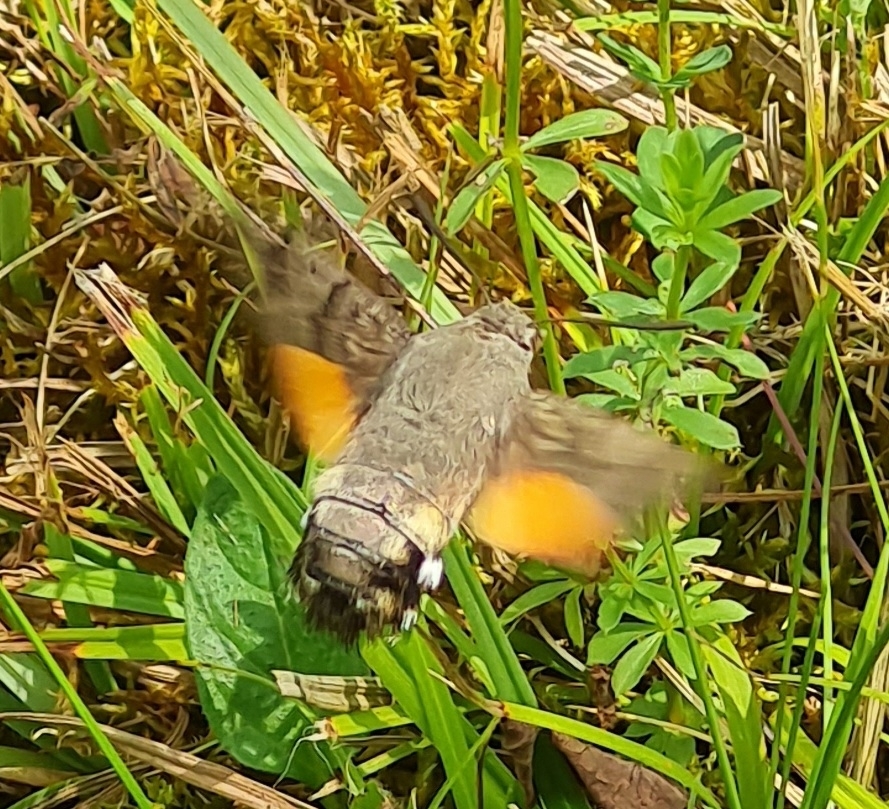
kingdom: Animalia
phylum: Arthropoda
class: Insecta
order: Lepidoptera
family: Sphingidae
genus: Macroglossum
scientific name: Macroglossum stellatarum
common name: Humming-bird hawk-moth
